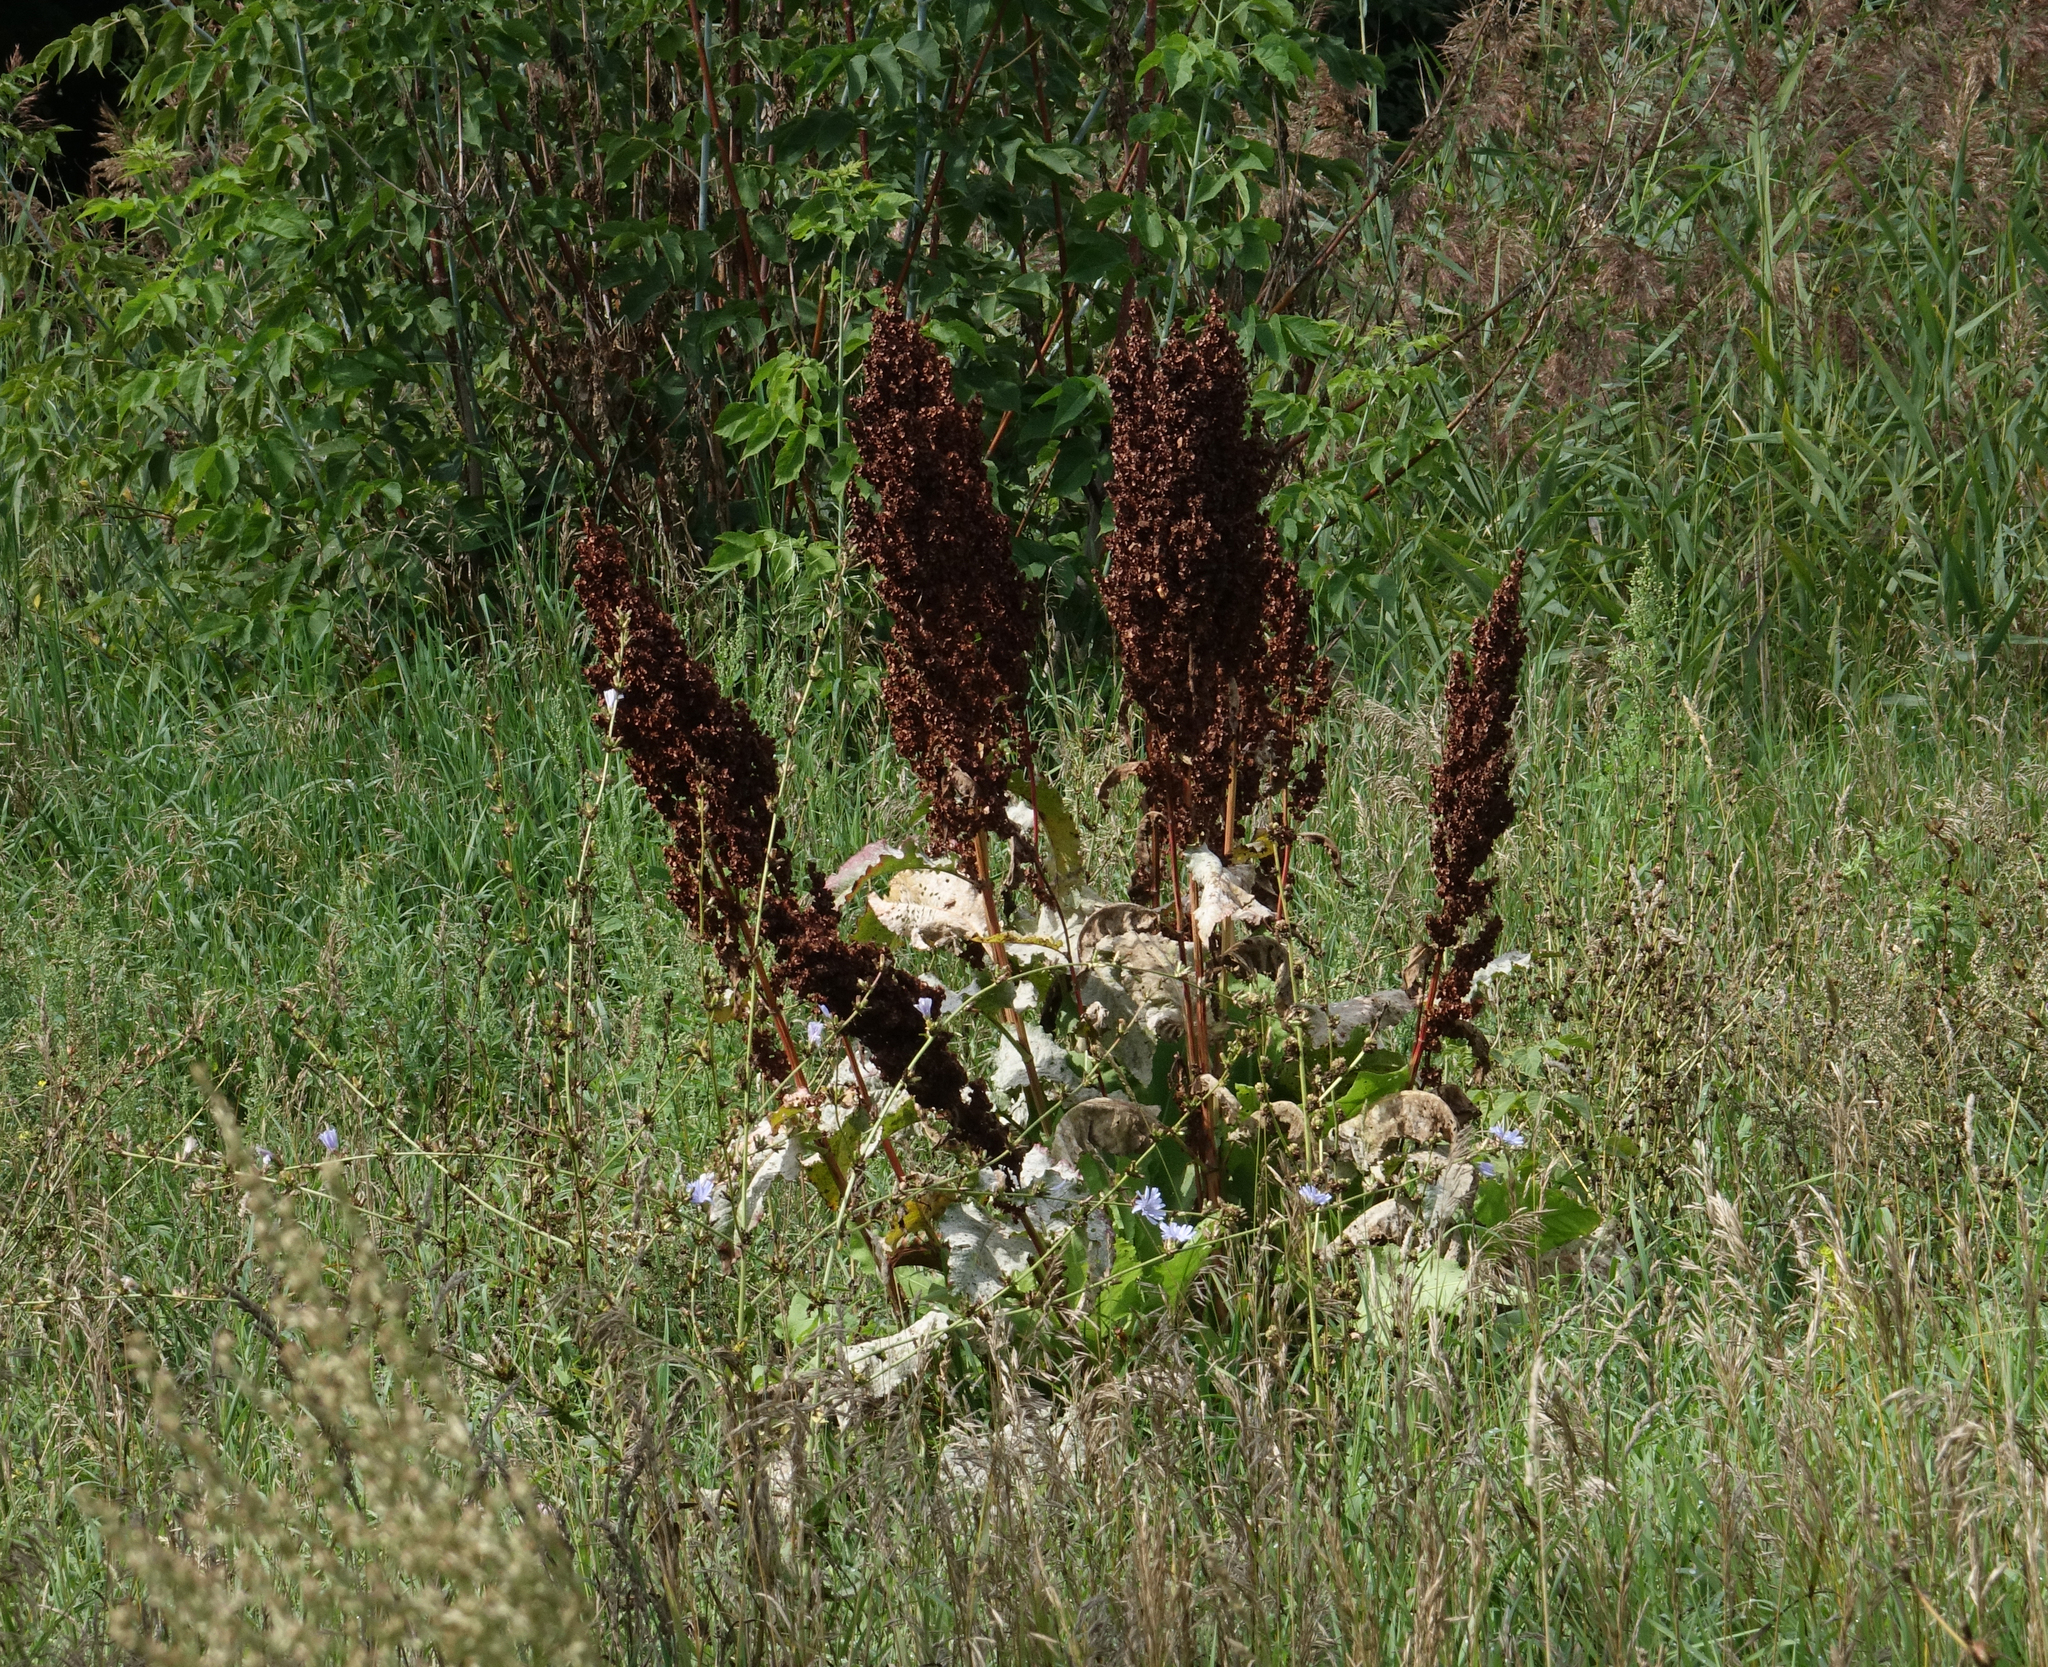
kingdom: Plantae
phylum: Tracheophyta
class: Magnoliopsida
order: Caryophyllales
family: Polygonaceae
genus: Rumex
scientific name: Rumex confertus
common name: Russian dock
